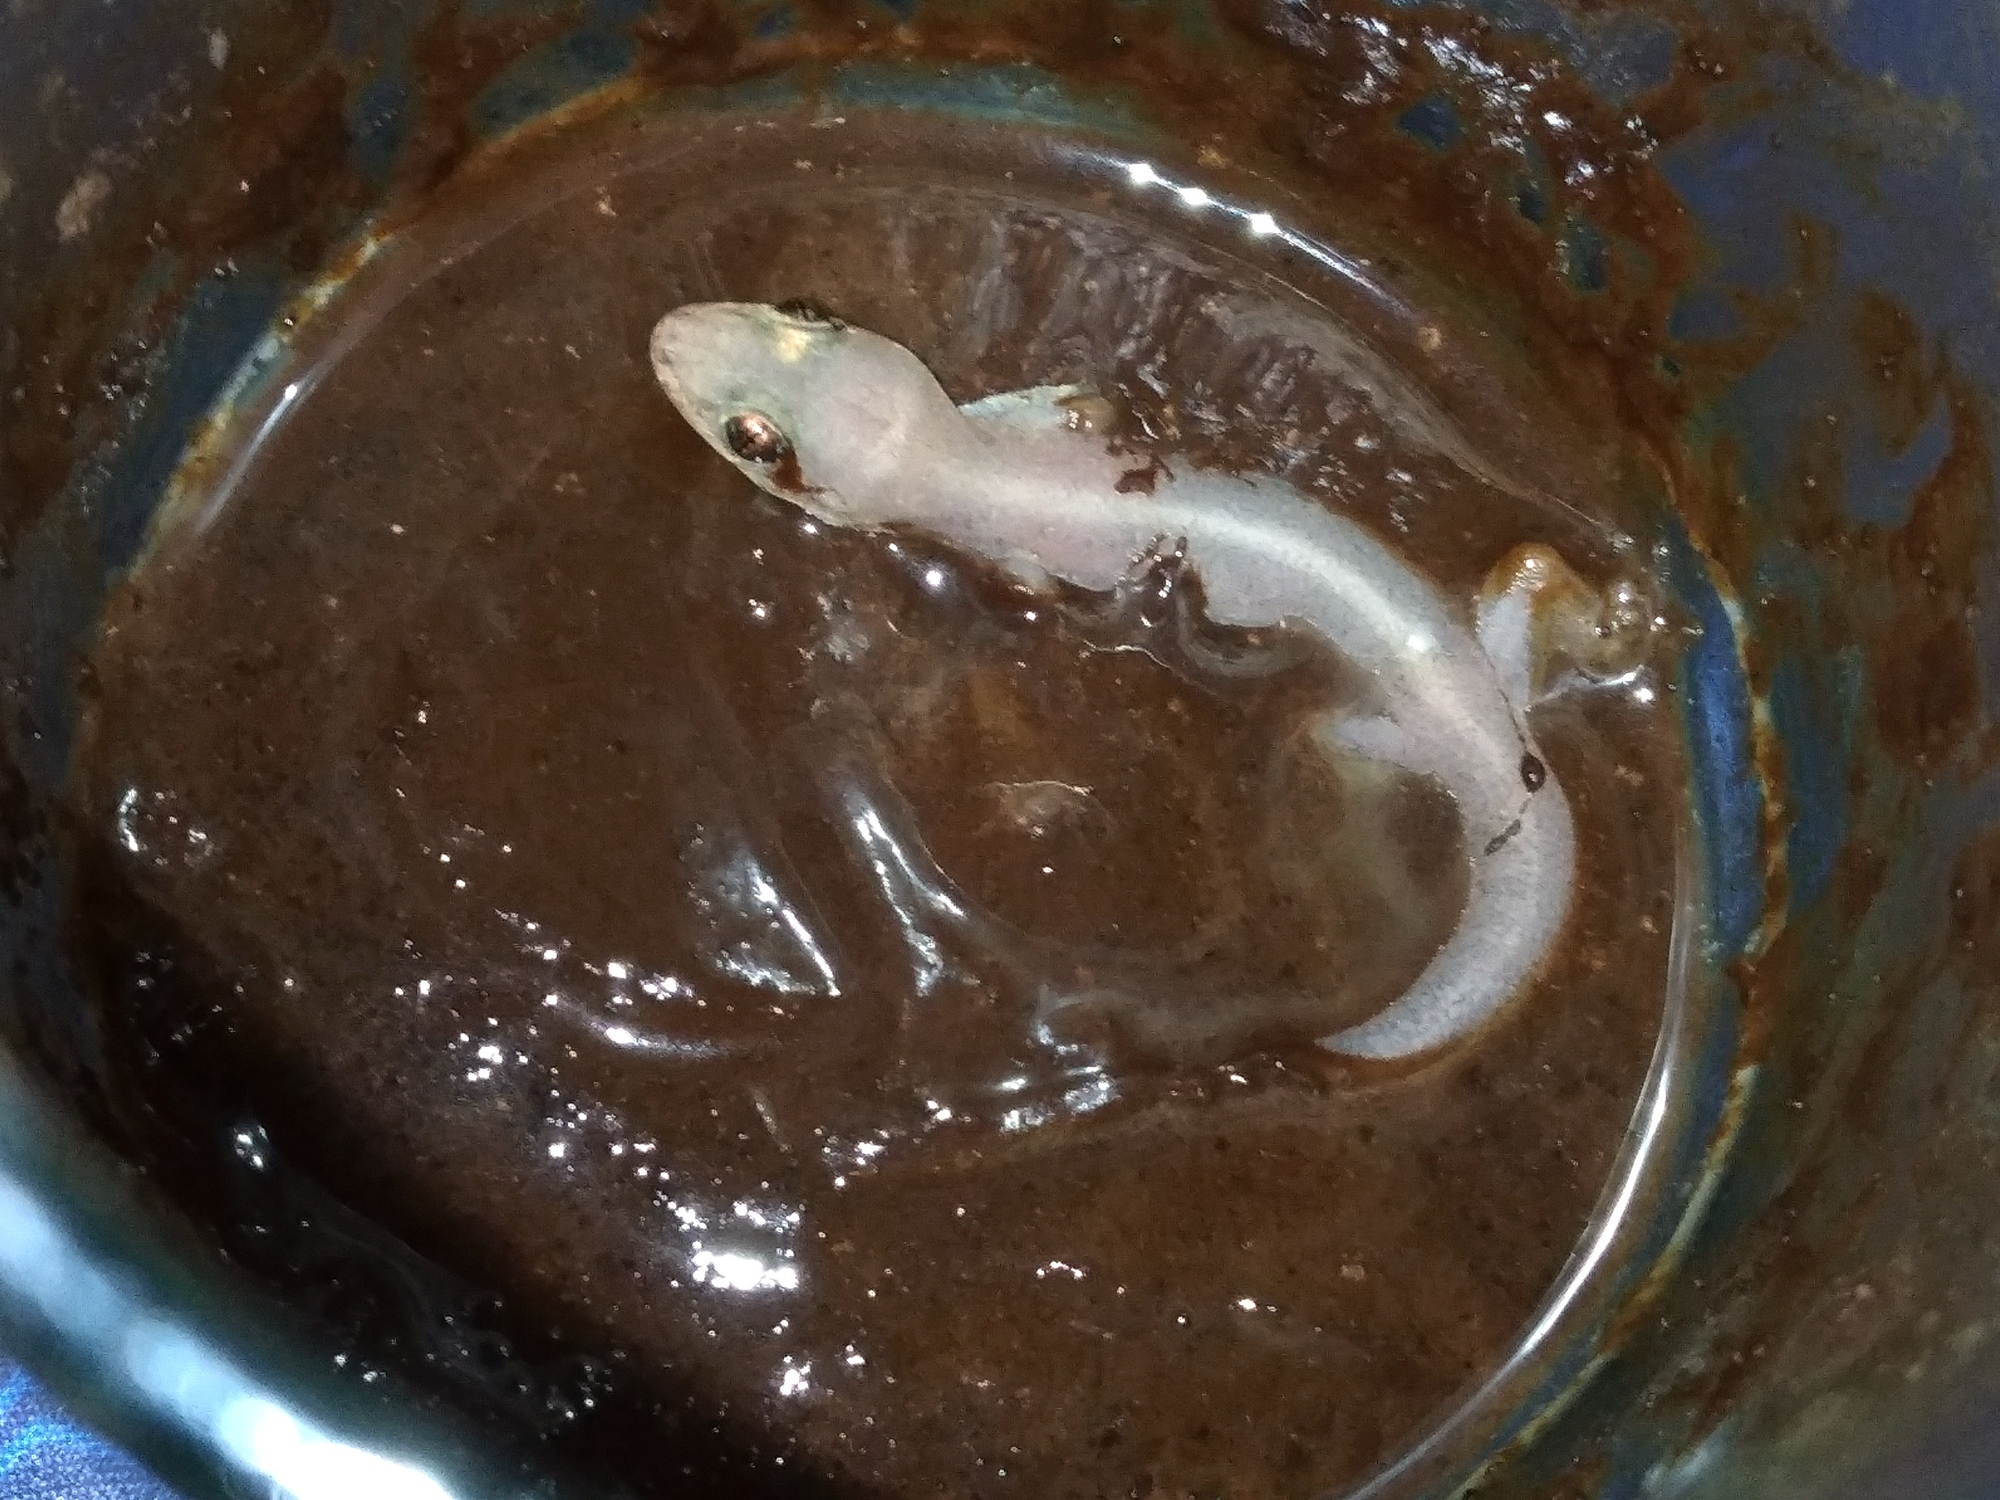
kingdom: Animalia
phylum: Chordata
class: Squamata
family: Gekkonidae
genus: Gehyra
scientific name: Gehyra mutilata
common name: Stump-toed gecko
